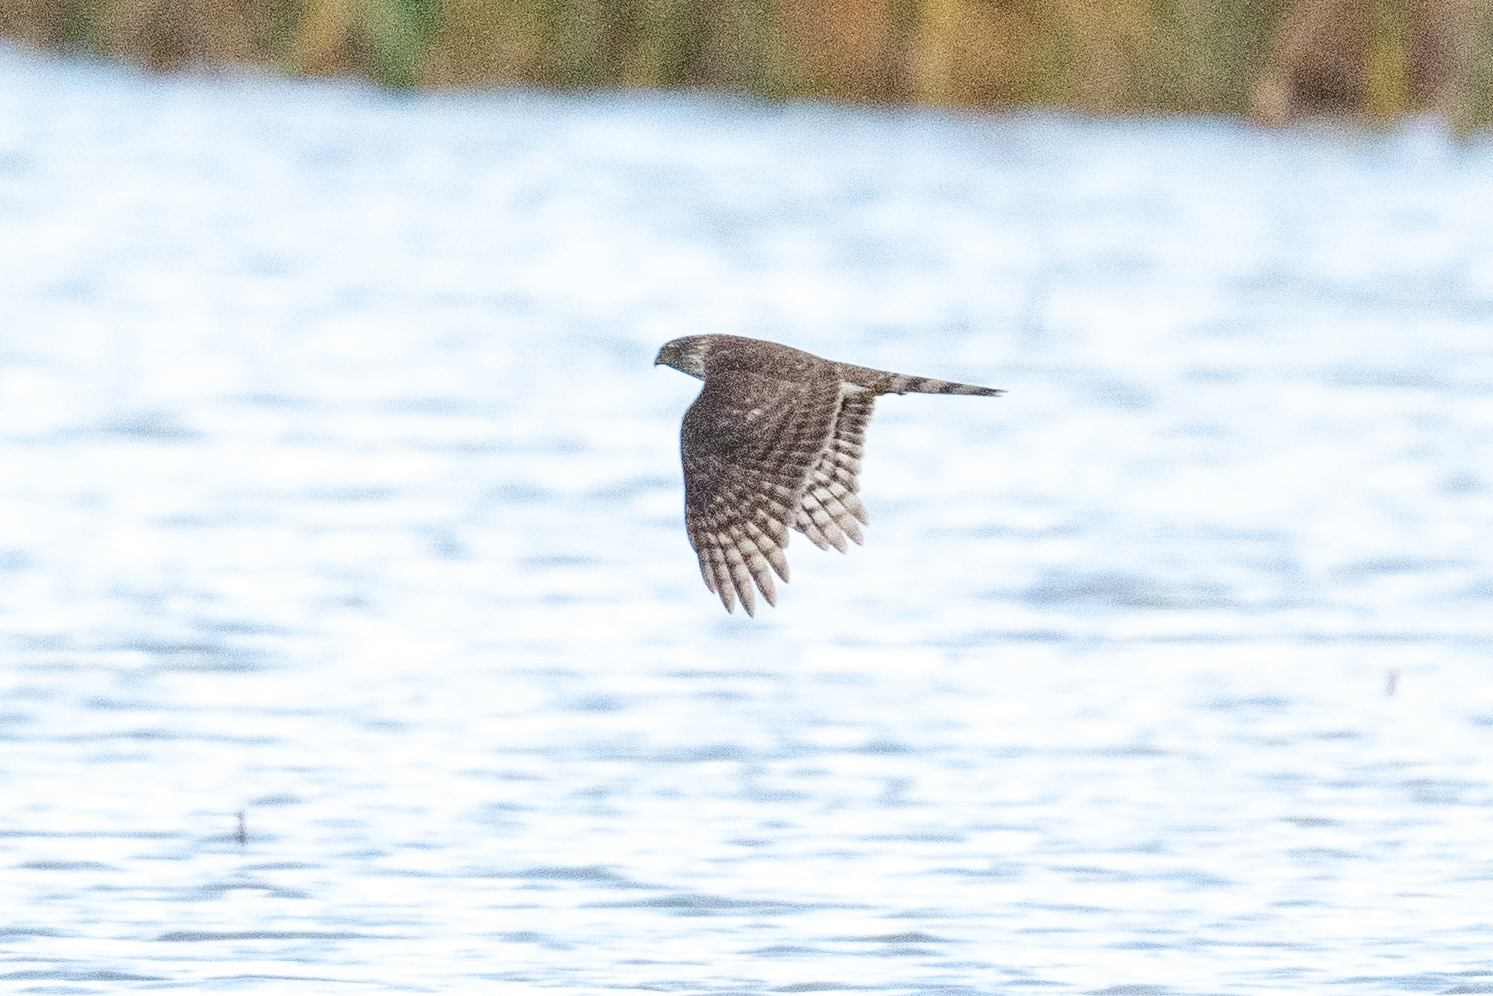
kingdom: Animalia
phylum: Chordata
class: Aves
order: Accipitriformes
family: Accipitridae
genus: Accipiter
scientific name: Accipiter cooperii
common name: Cooper's hawk
